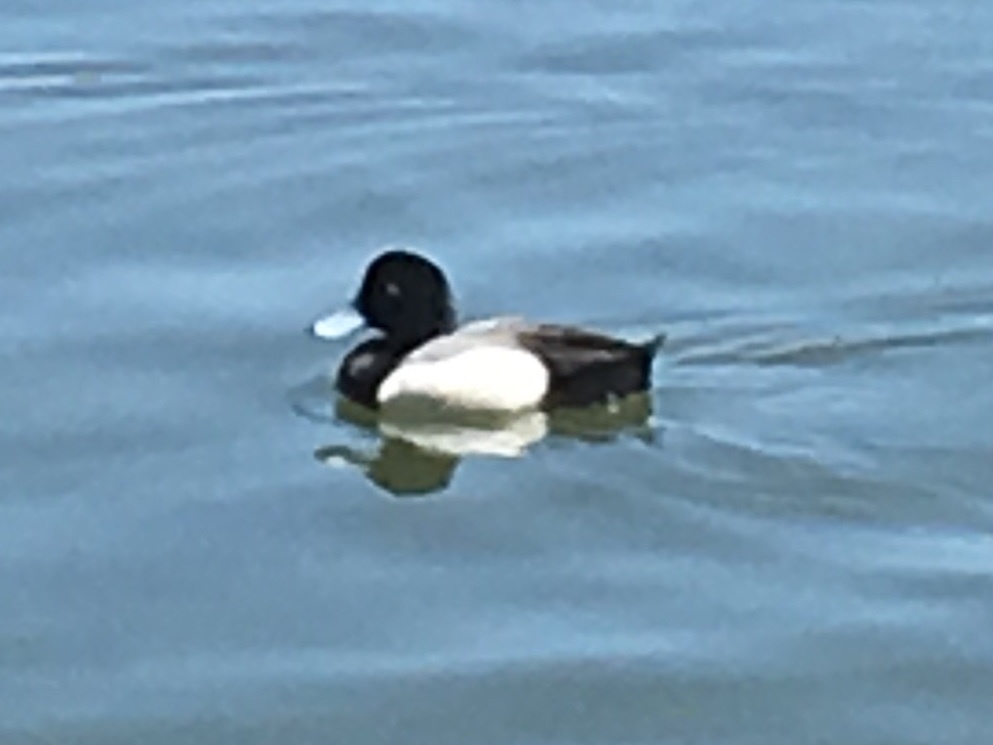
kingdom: Animalia
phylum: Chordata
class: Aves
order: Anseriformes
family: Anatidae
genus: Aythya
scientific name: Aythya
